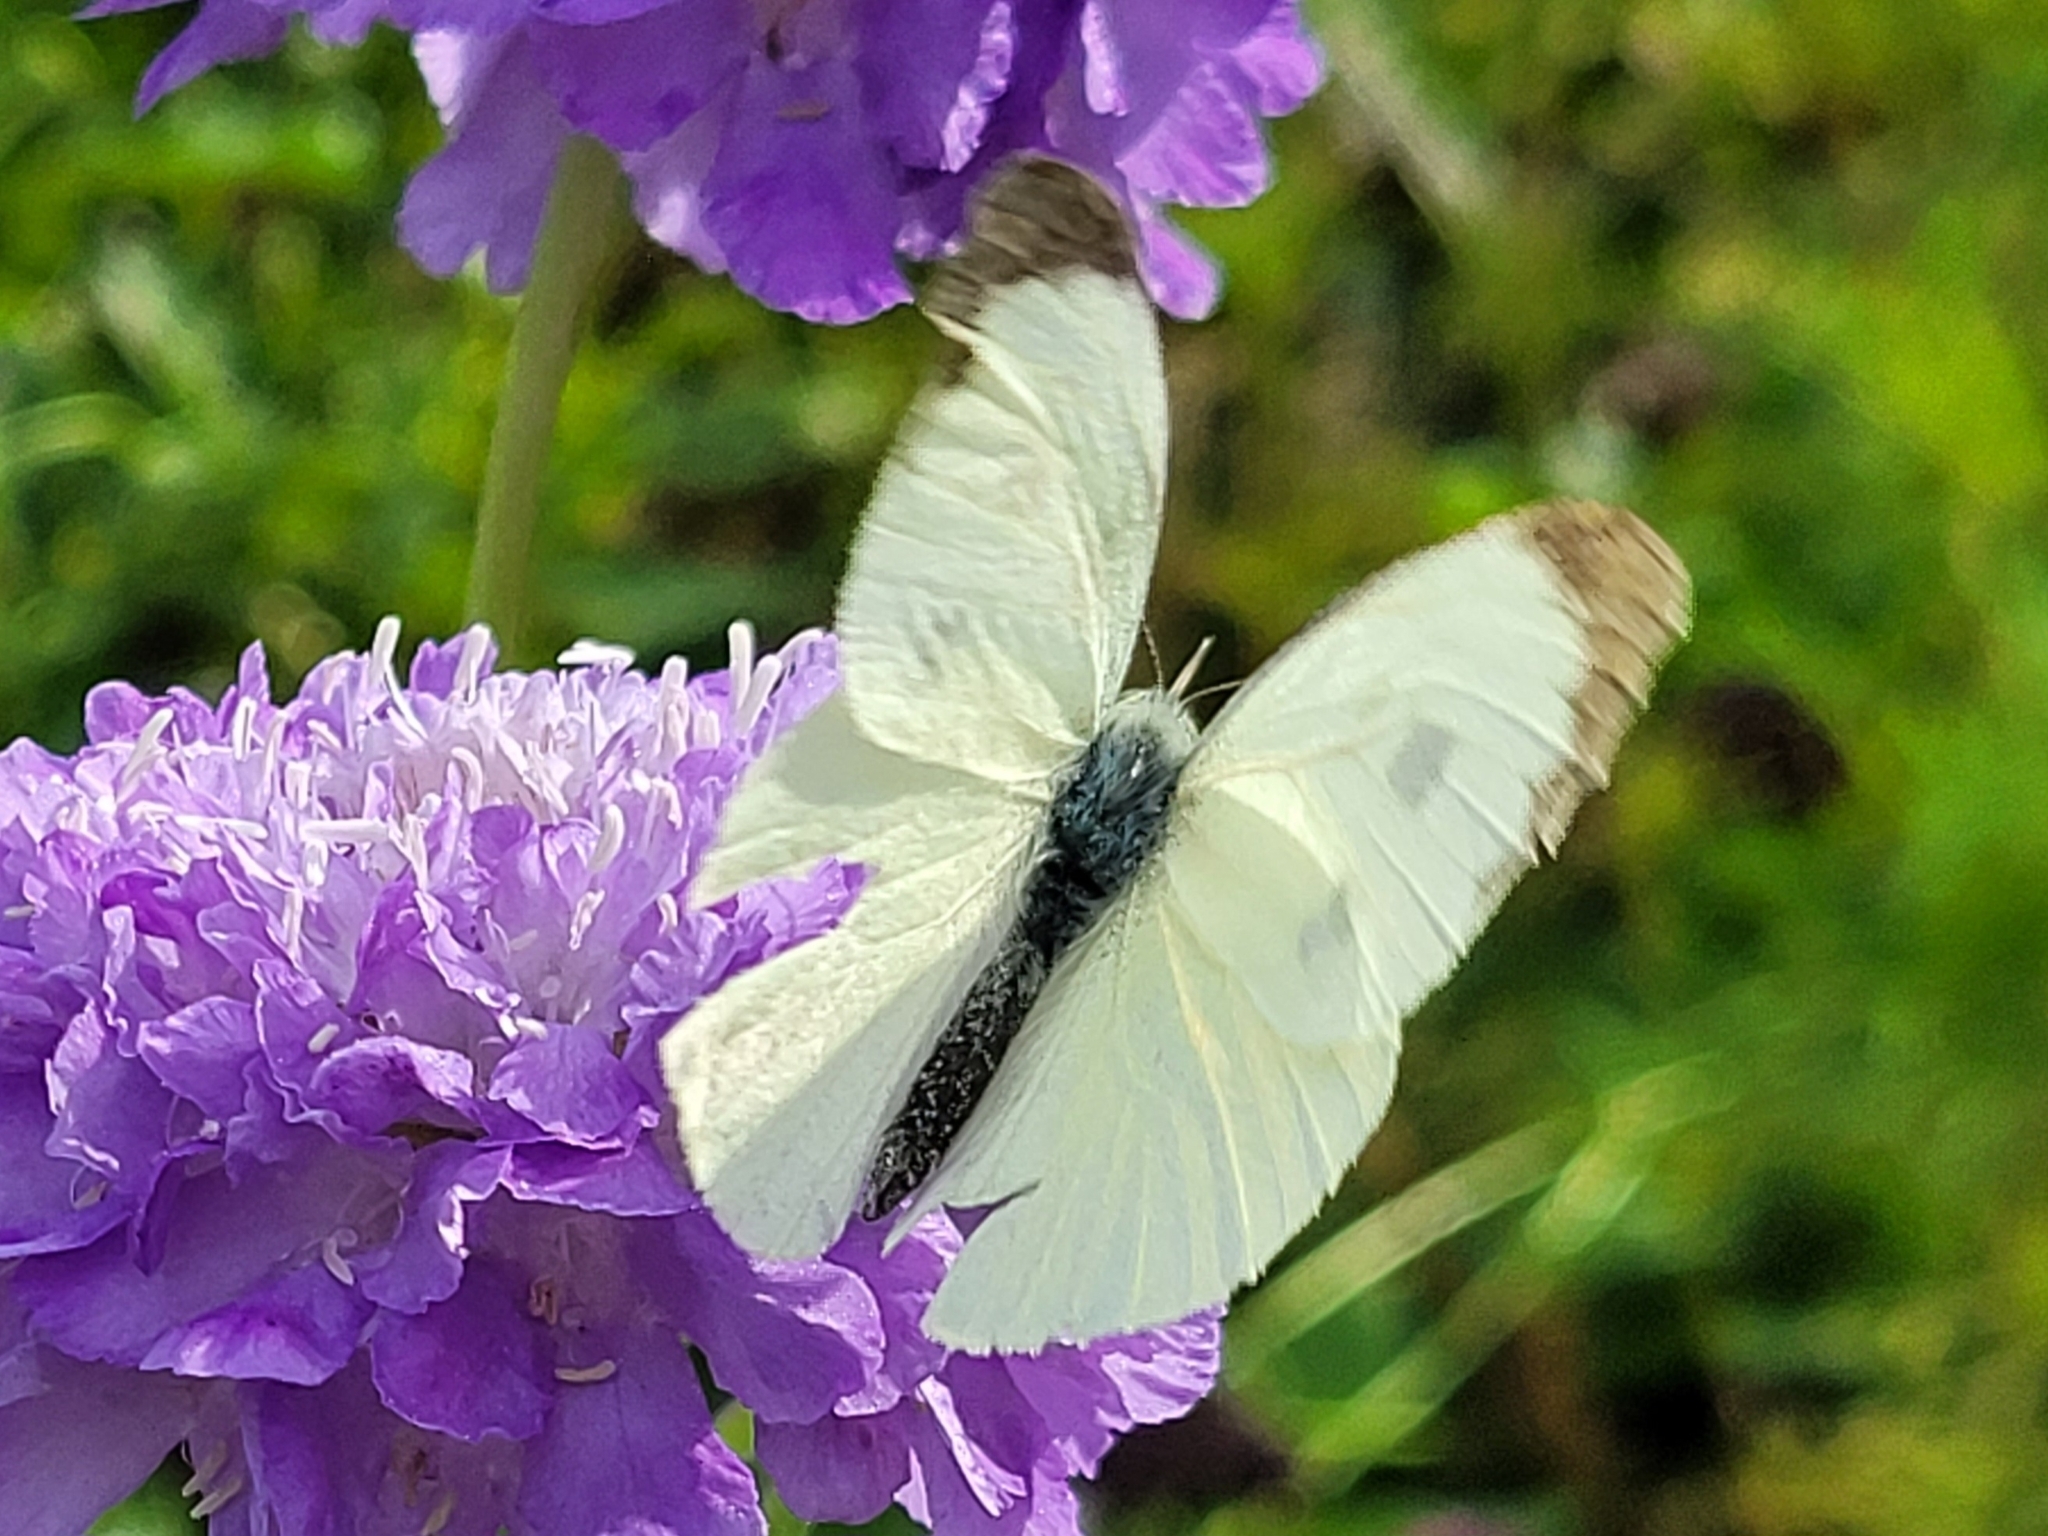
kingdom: Animalia
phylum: Arthropoda
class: Insecta
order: Lepidoptera
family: Pieridae
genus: Pieris
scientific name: Pieris brassicae
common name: Large white
